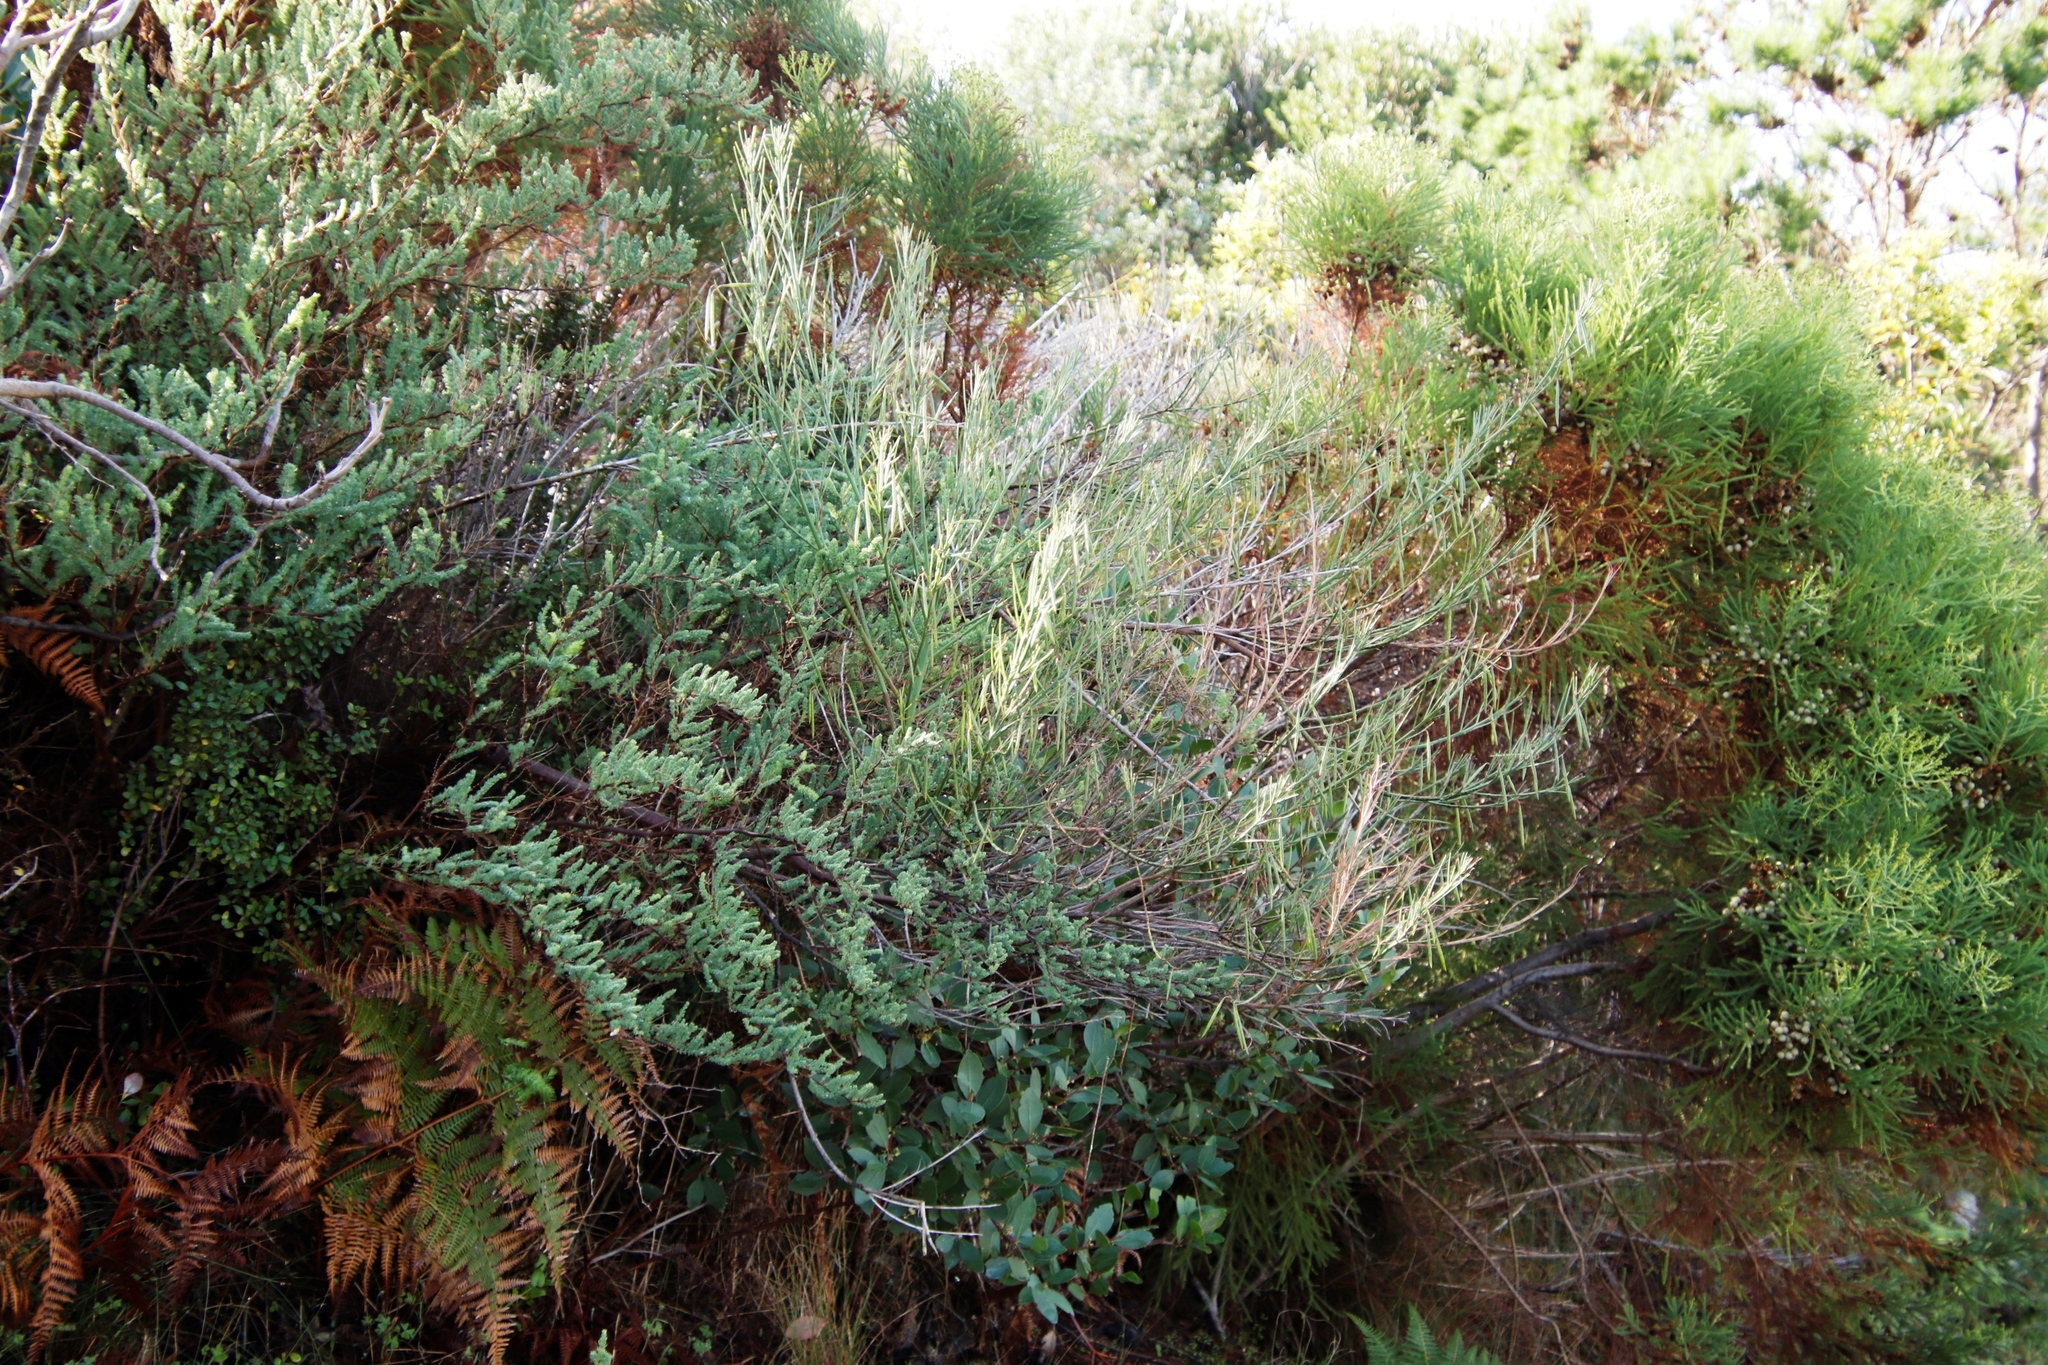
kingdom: Plantae
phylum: Tracheophyta
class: Magnoliopsida
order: Fabales
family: Fabaceae
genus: Indigofera
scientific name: Indigofera filifolia
